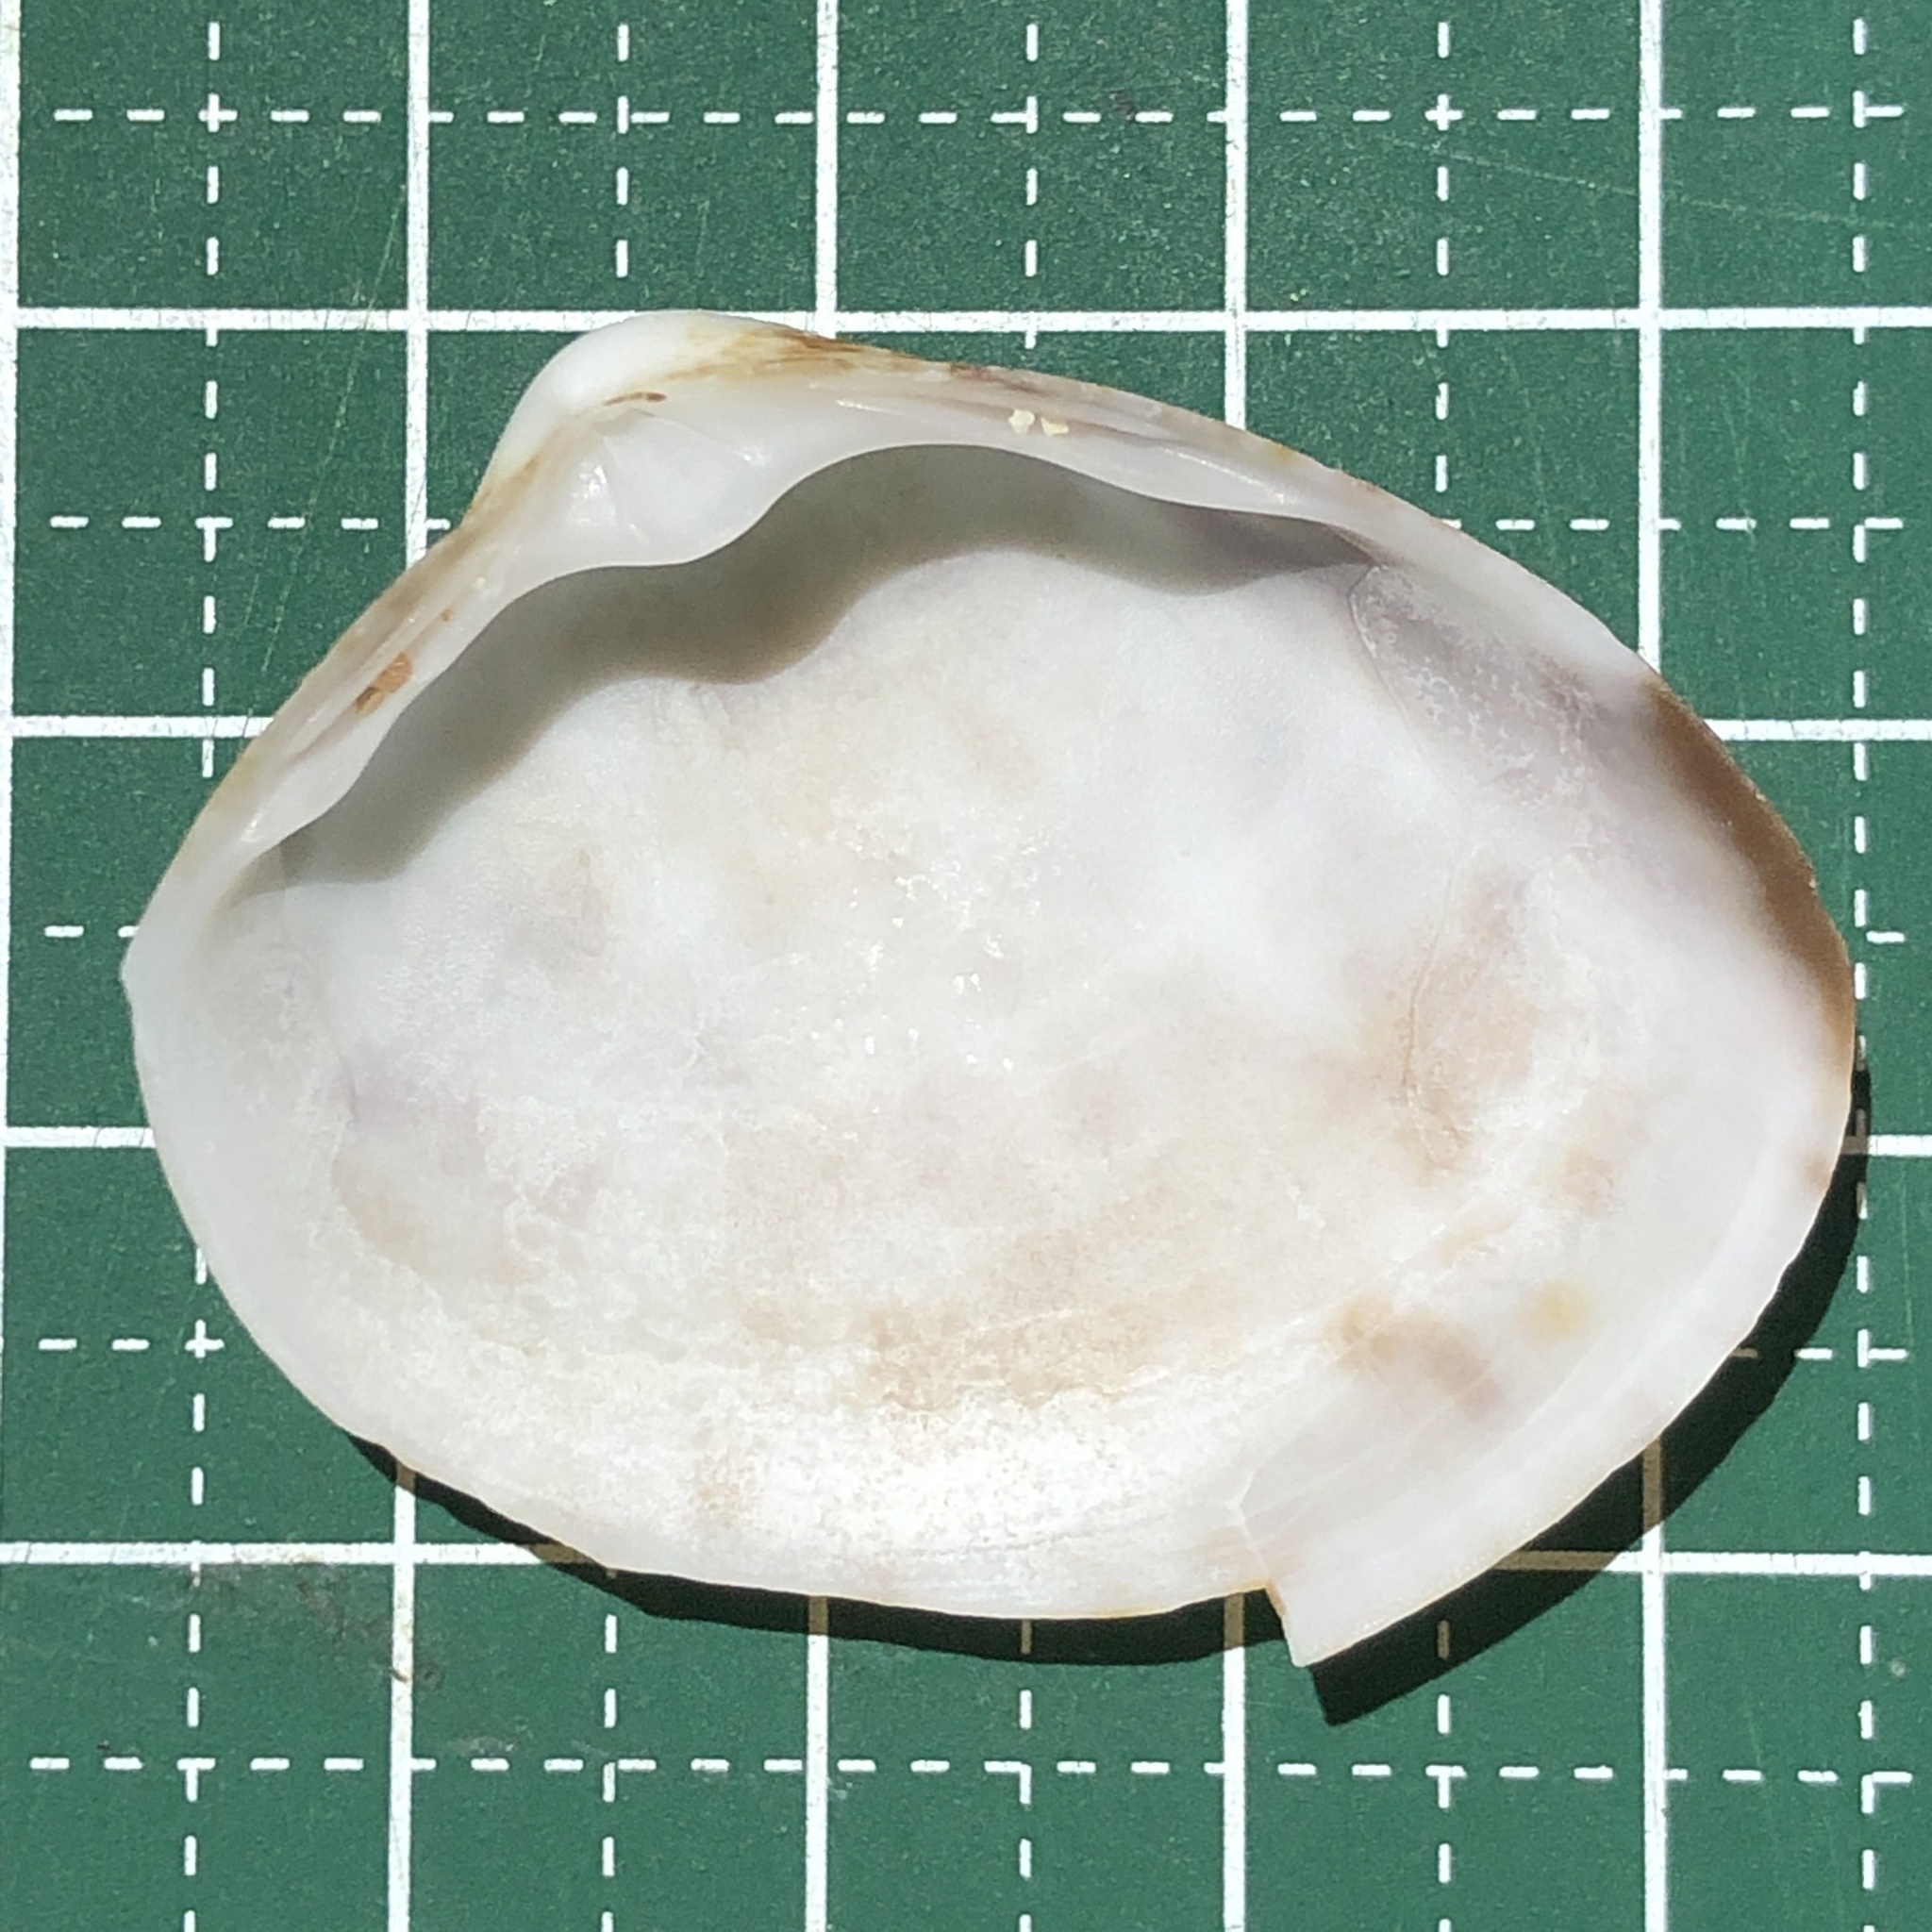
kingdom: Animalia
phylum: Mollusca
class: Bivalvia
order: Venerida
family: Mactridae
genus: Mactra
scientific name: Mactra maculata
